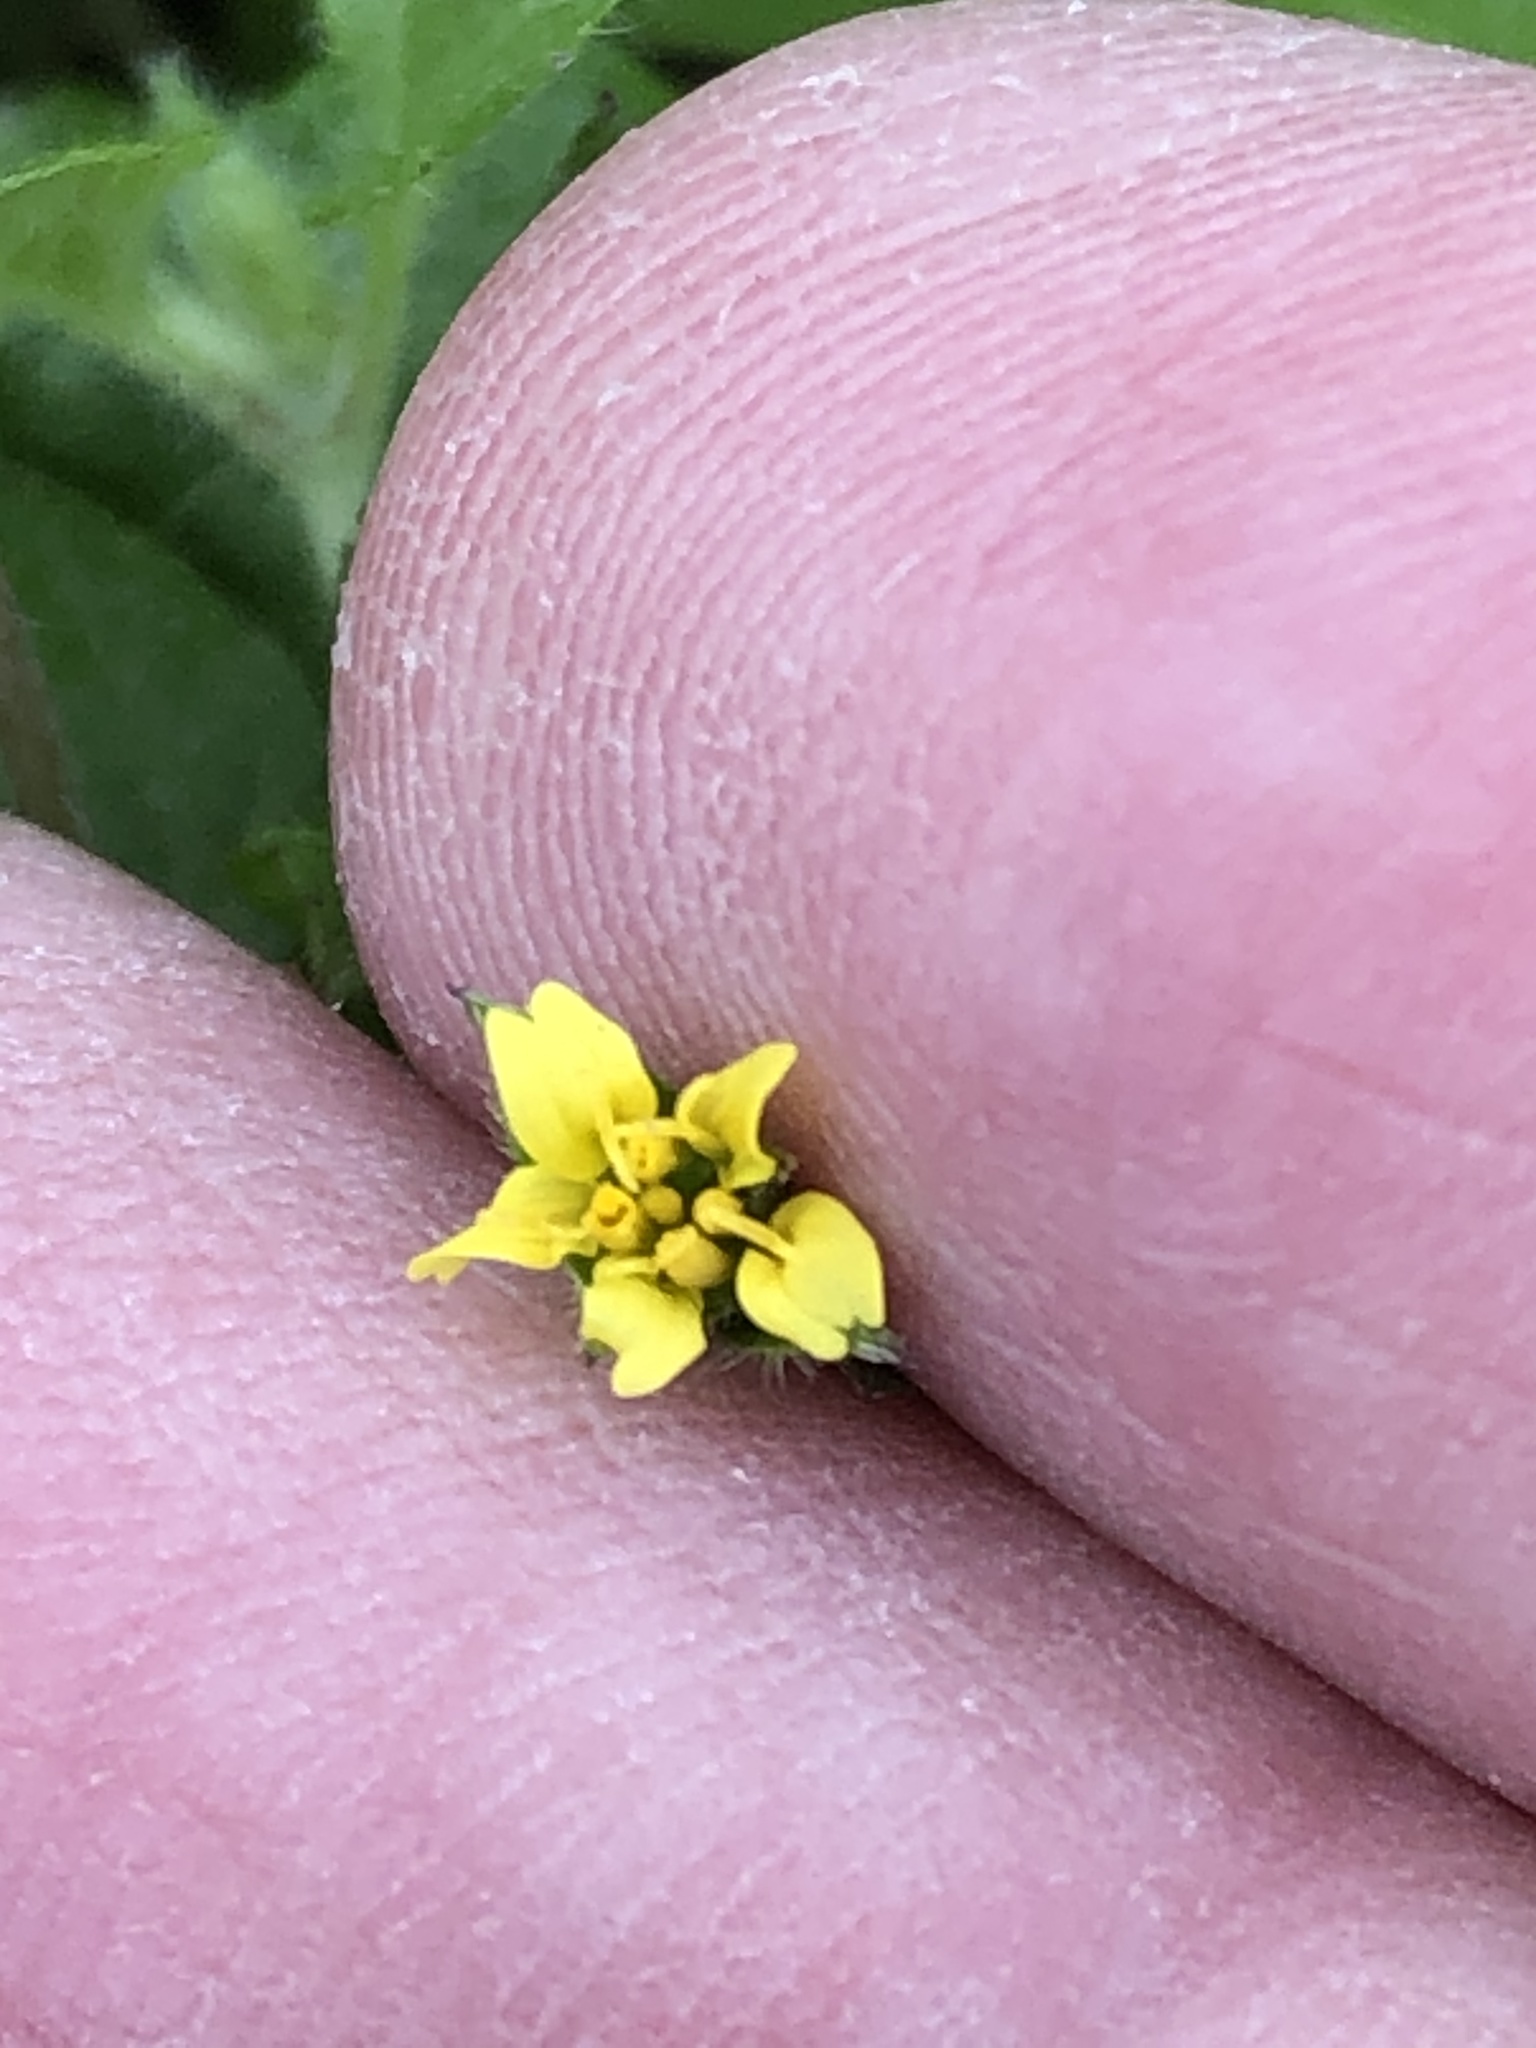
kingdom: Plantae
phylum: Tracheophyta
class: Magnoliopsida
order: Asterales
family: Asteraceae
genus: Synedrella
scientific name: Synedrella nodiflora
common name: Nodeweed
